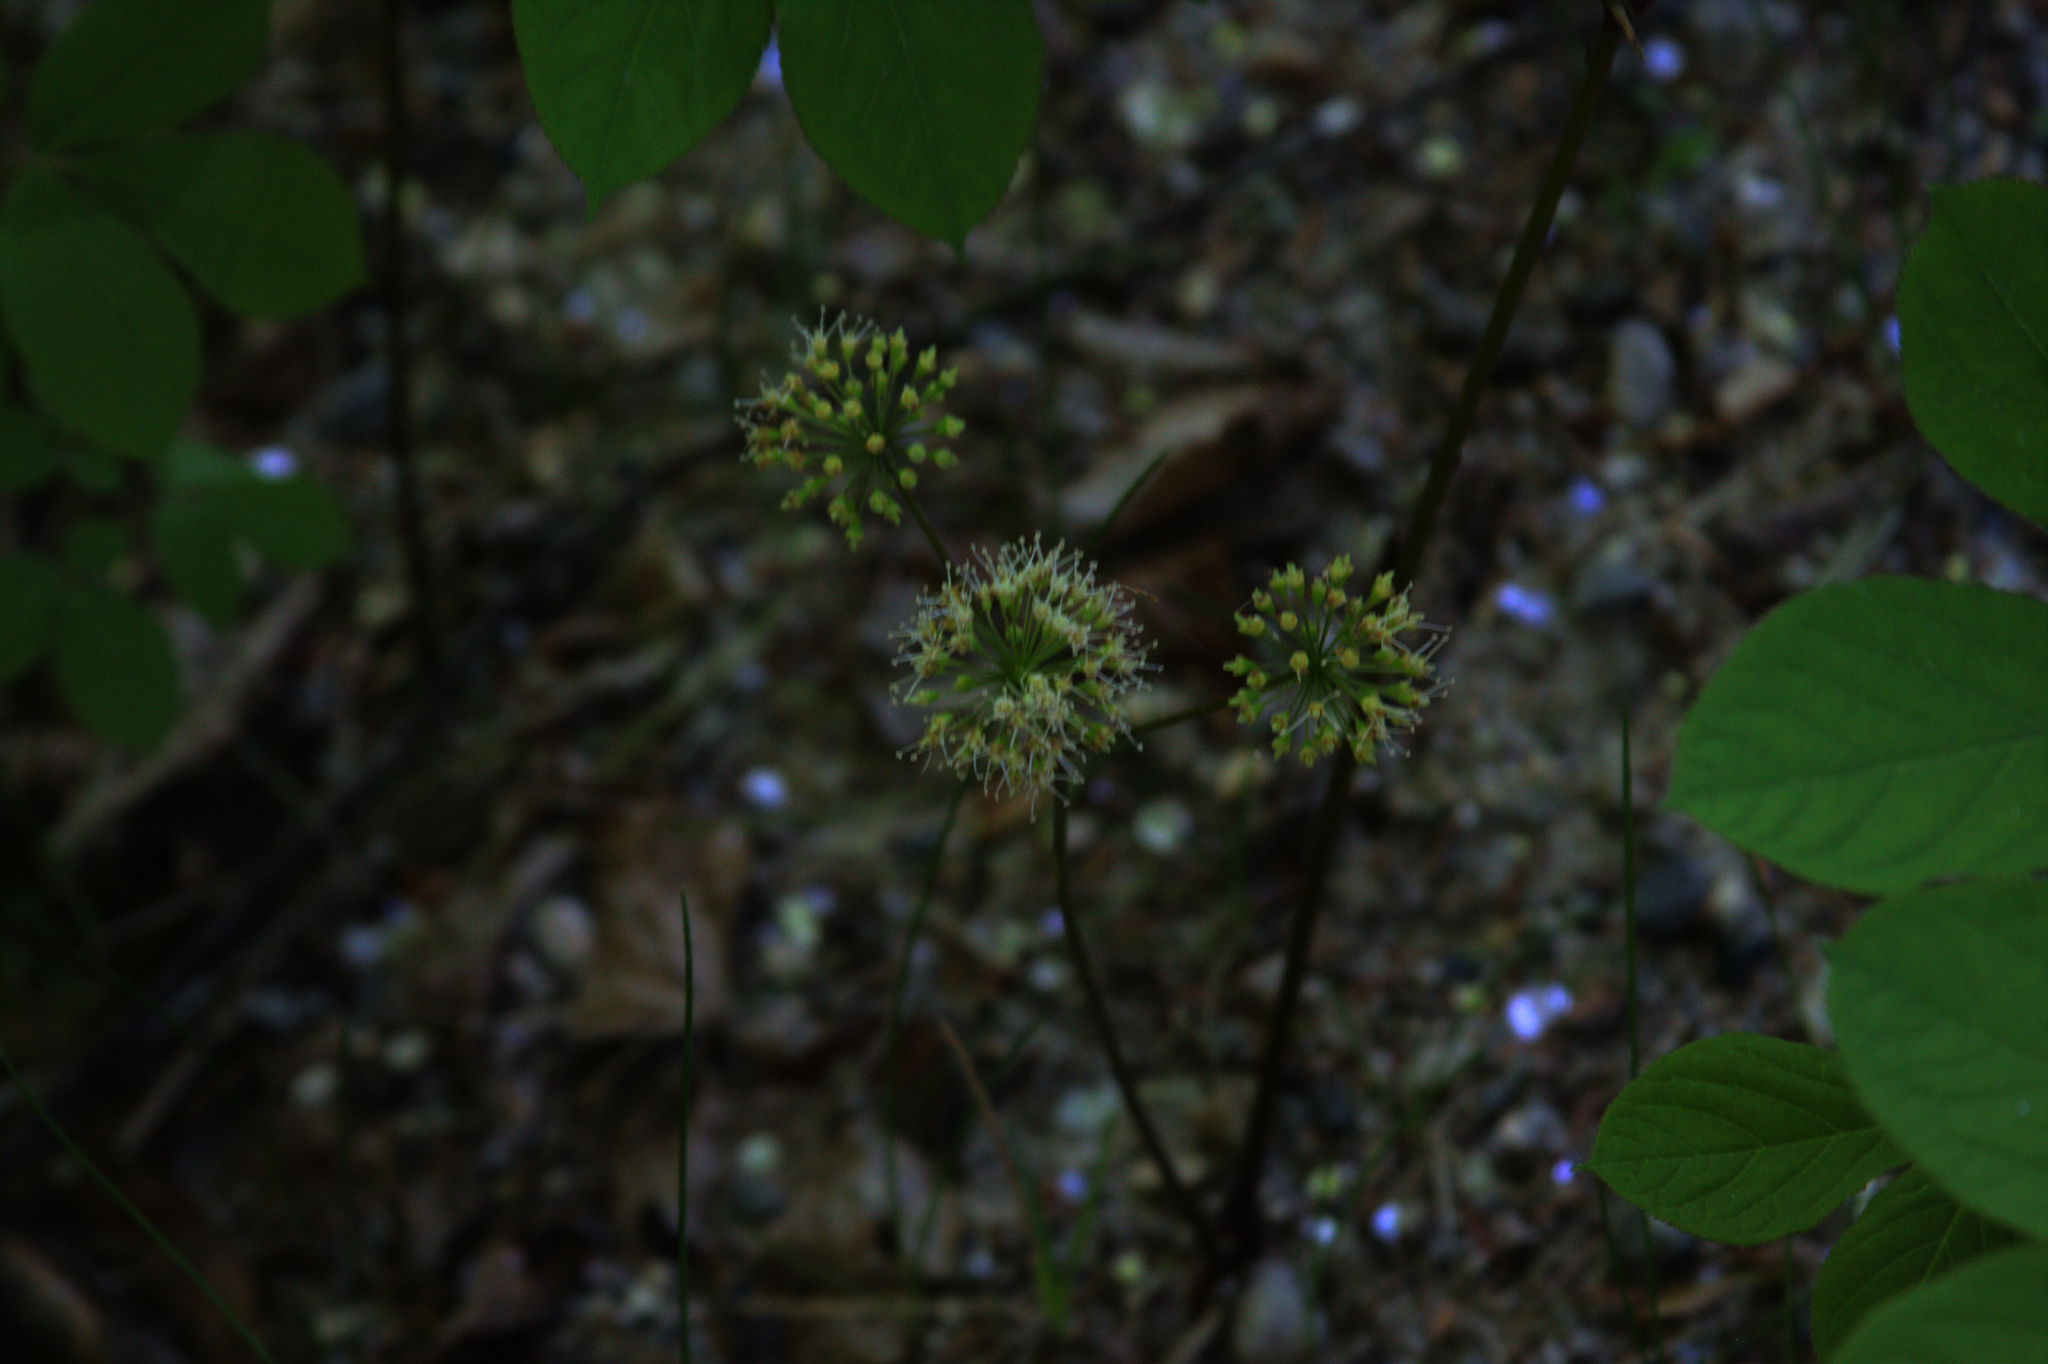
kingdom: Plantae
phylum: Tracheophyta
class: Magnoliopsida
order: Apiales
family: Araliaceae
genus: Aralia
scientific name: Aralia nudicaulis
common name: Wild sarsaparilla
